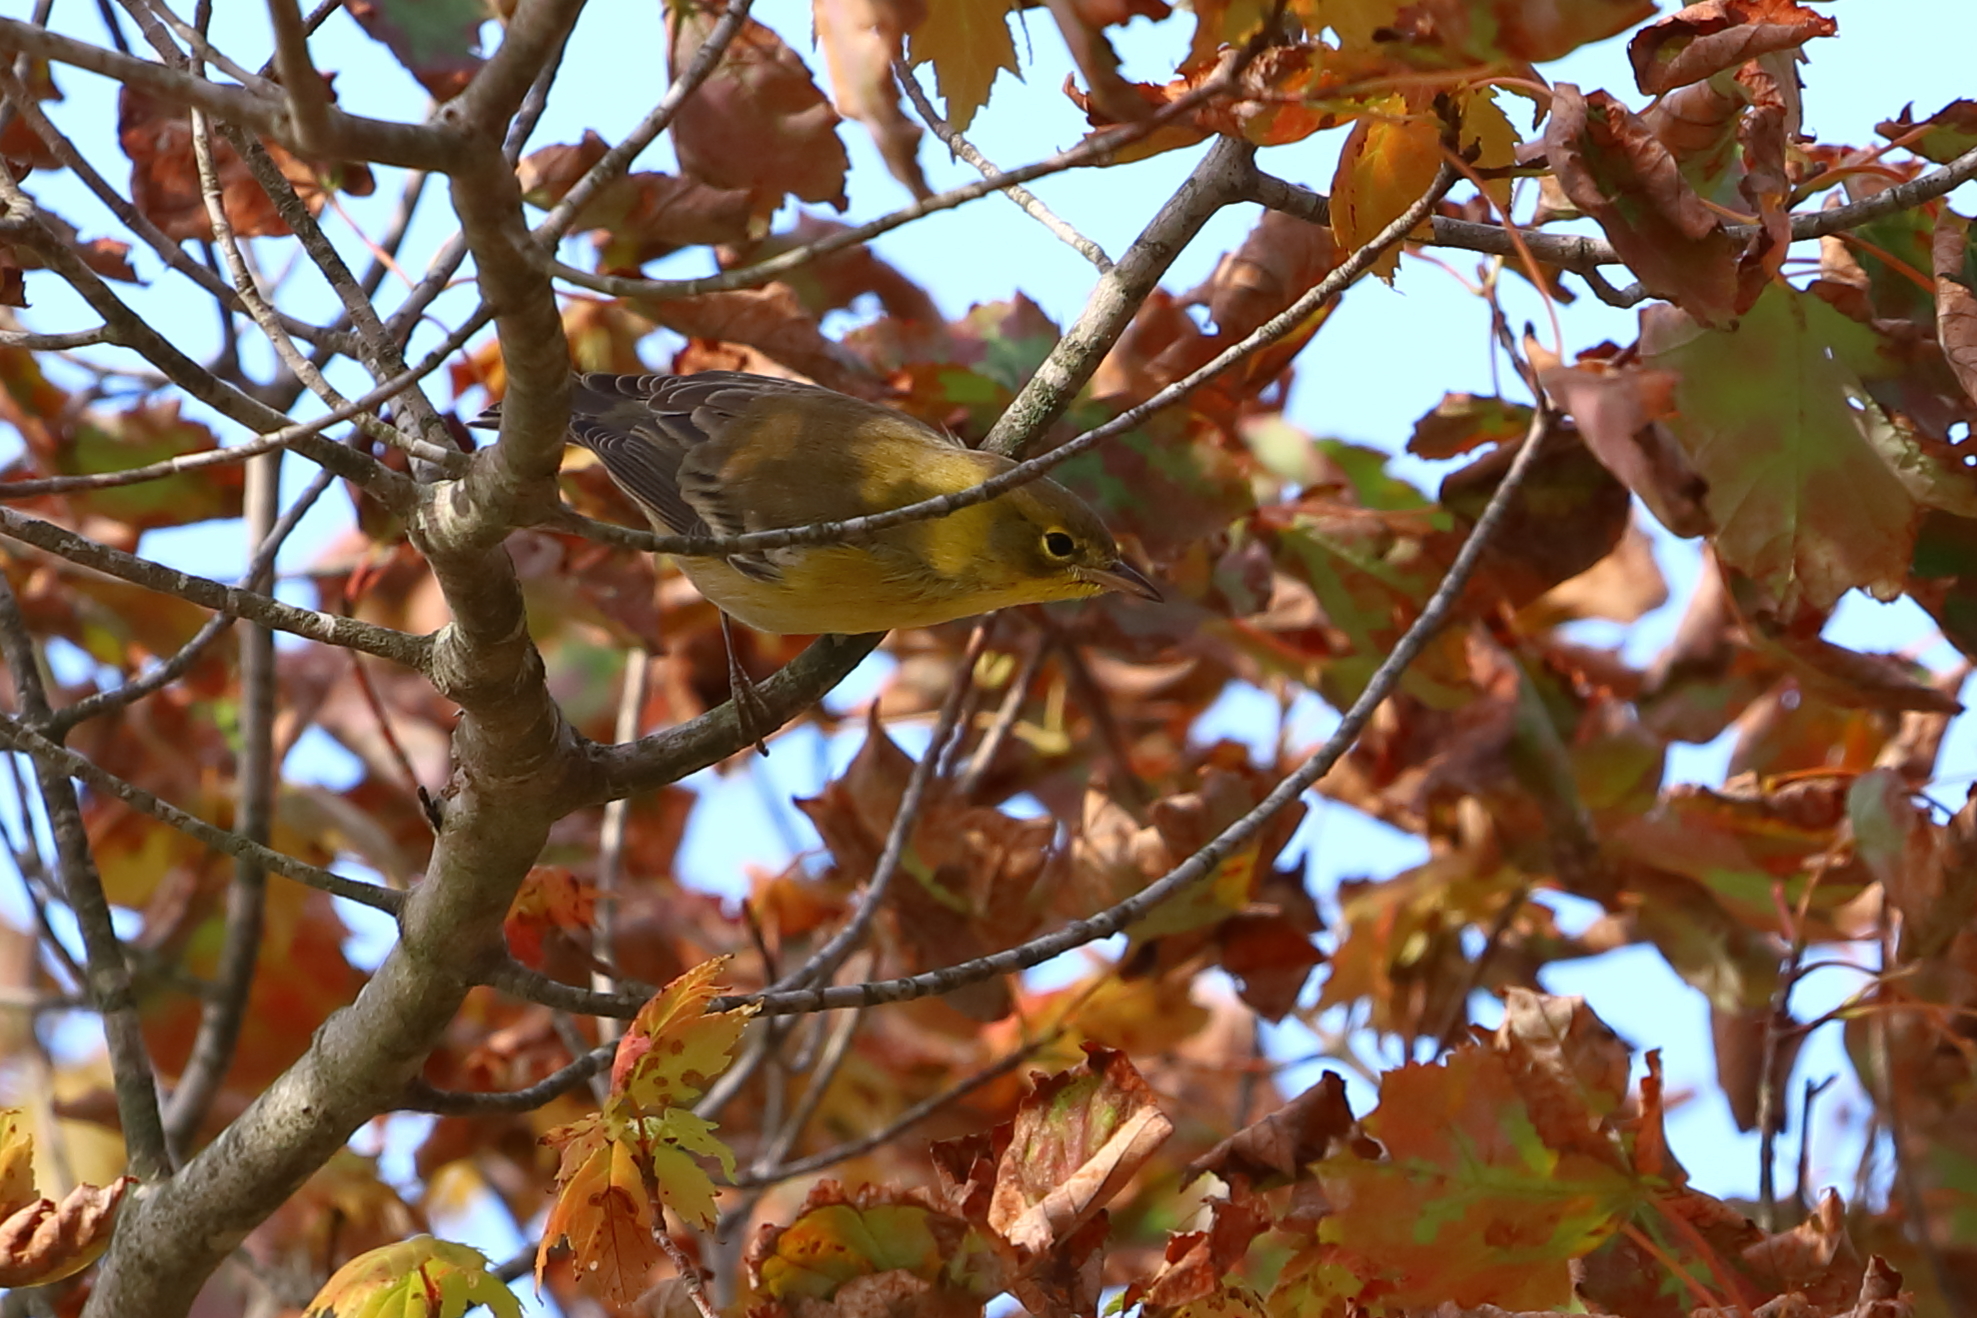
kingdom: Animalia
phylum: Chordata
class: Aves
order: Passeriformes
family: Parulidae
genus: Setophaga
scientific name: Setophaga pinus
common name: Pine warbler
